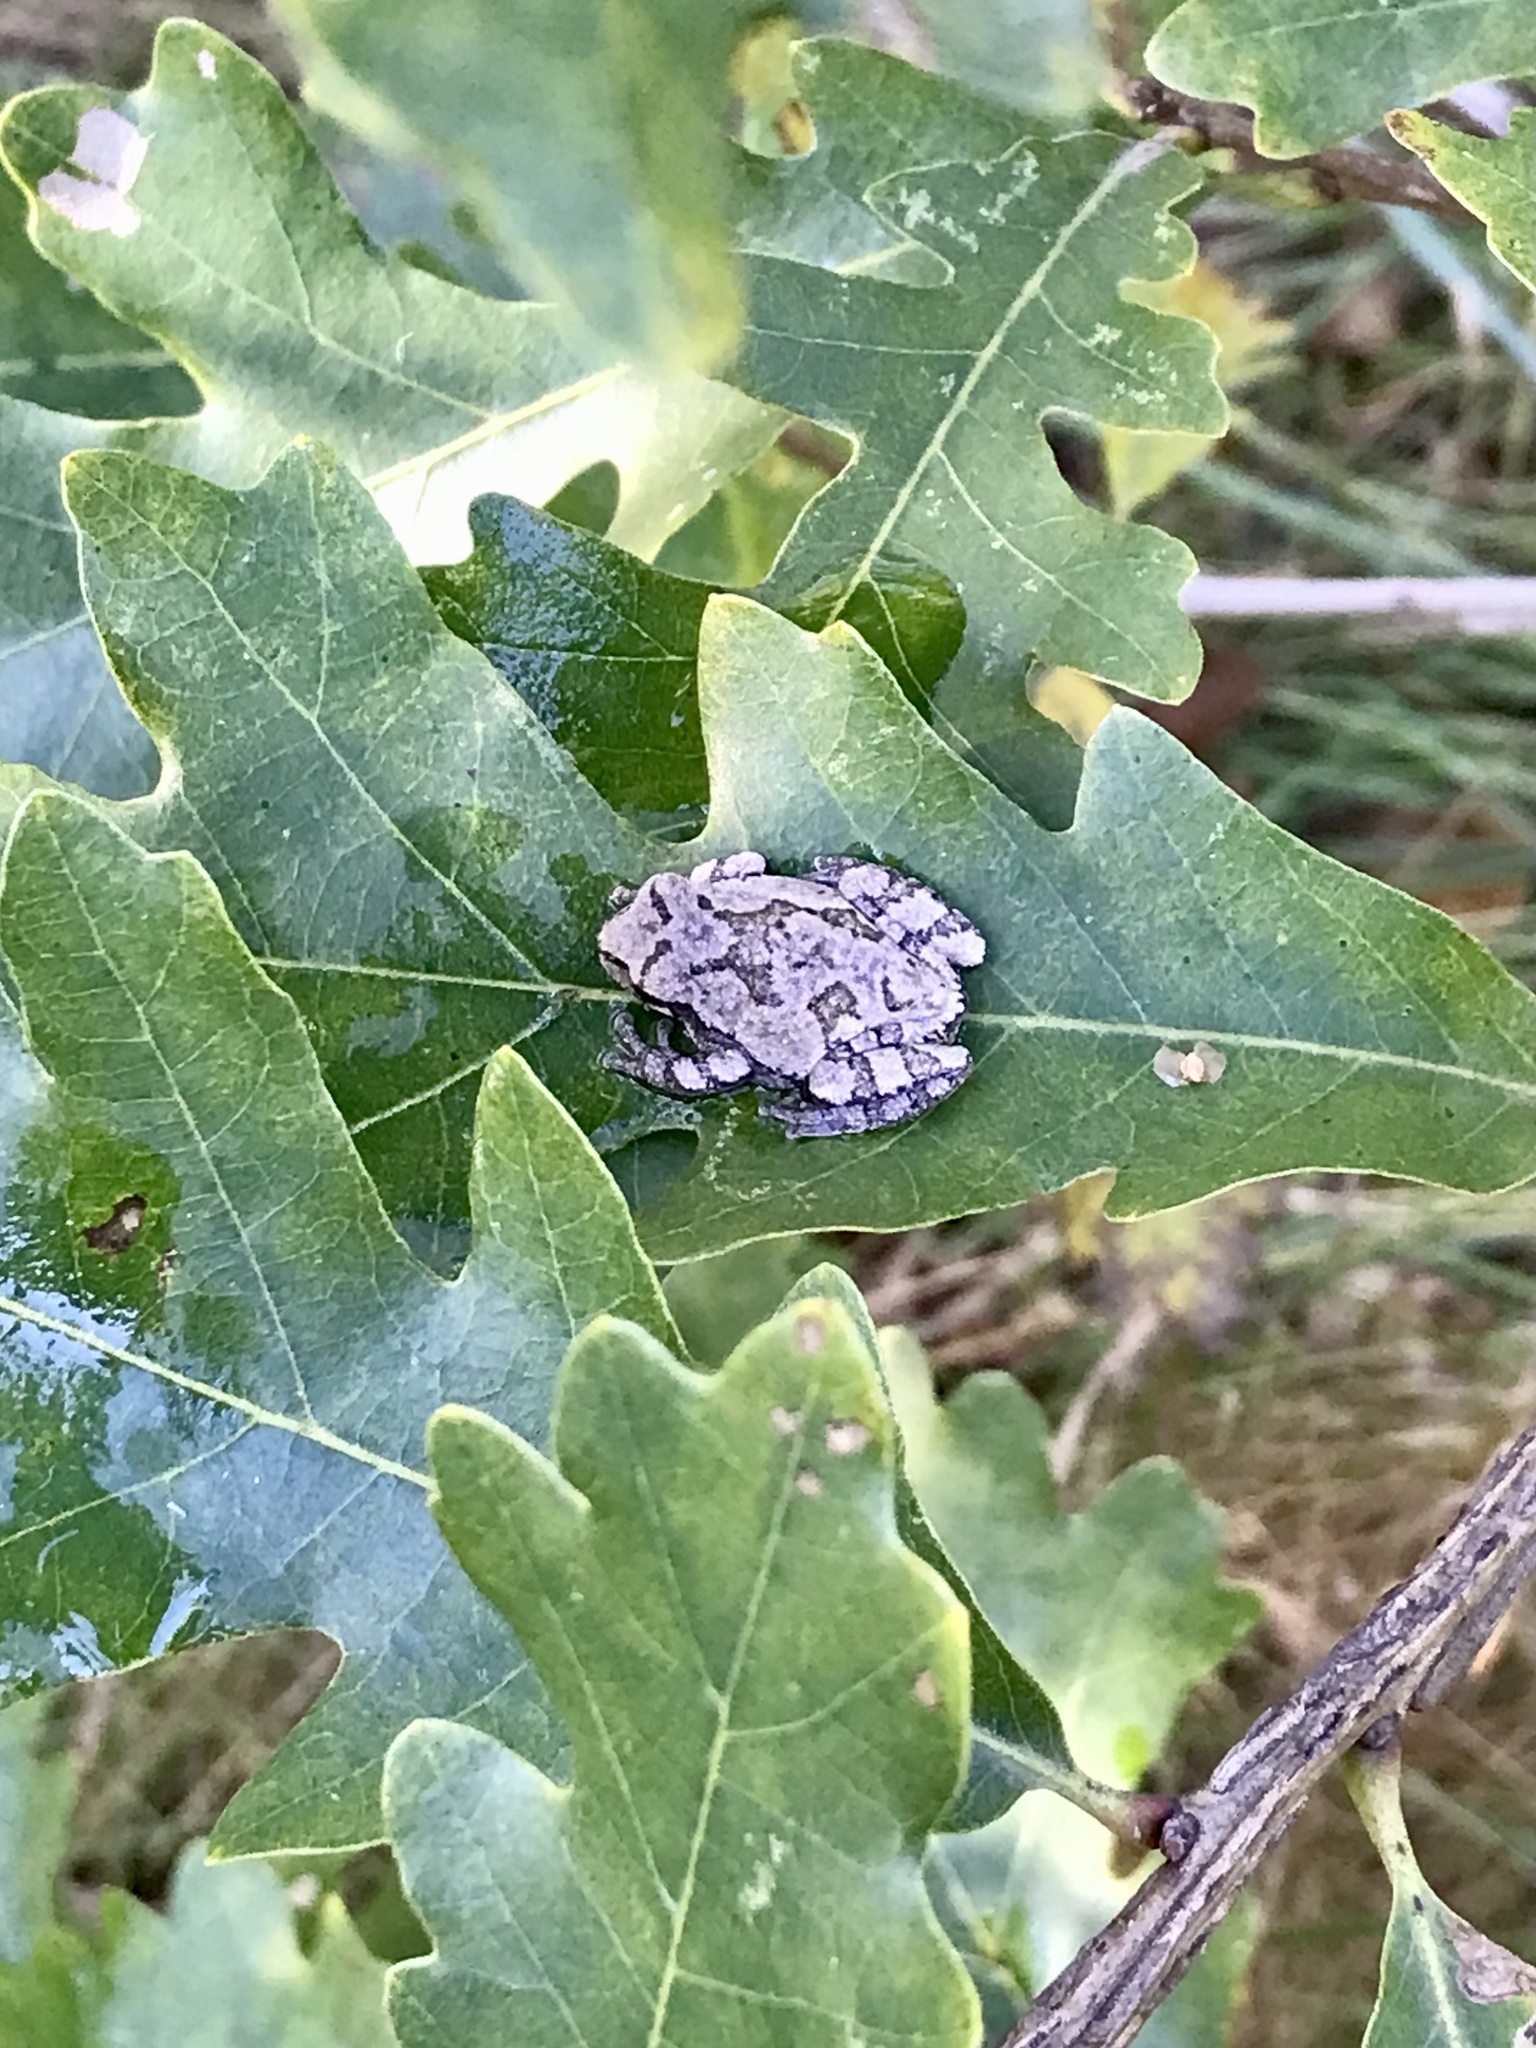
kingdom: Animalia
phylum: Chordata
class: Amphibia
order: Anura
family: Hylidae
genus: Hyla
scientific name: Hyla
